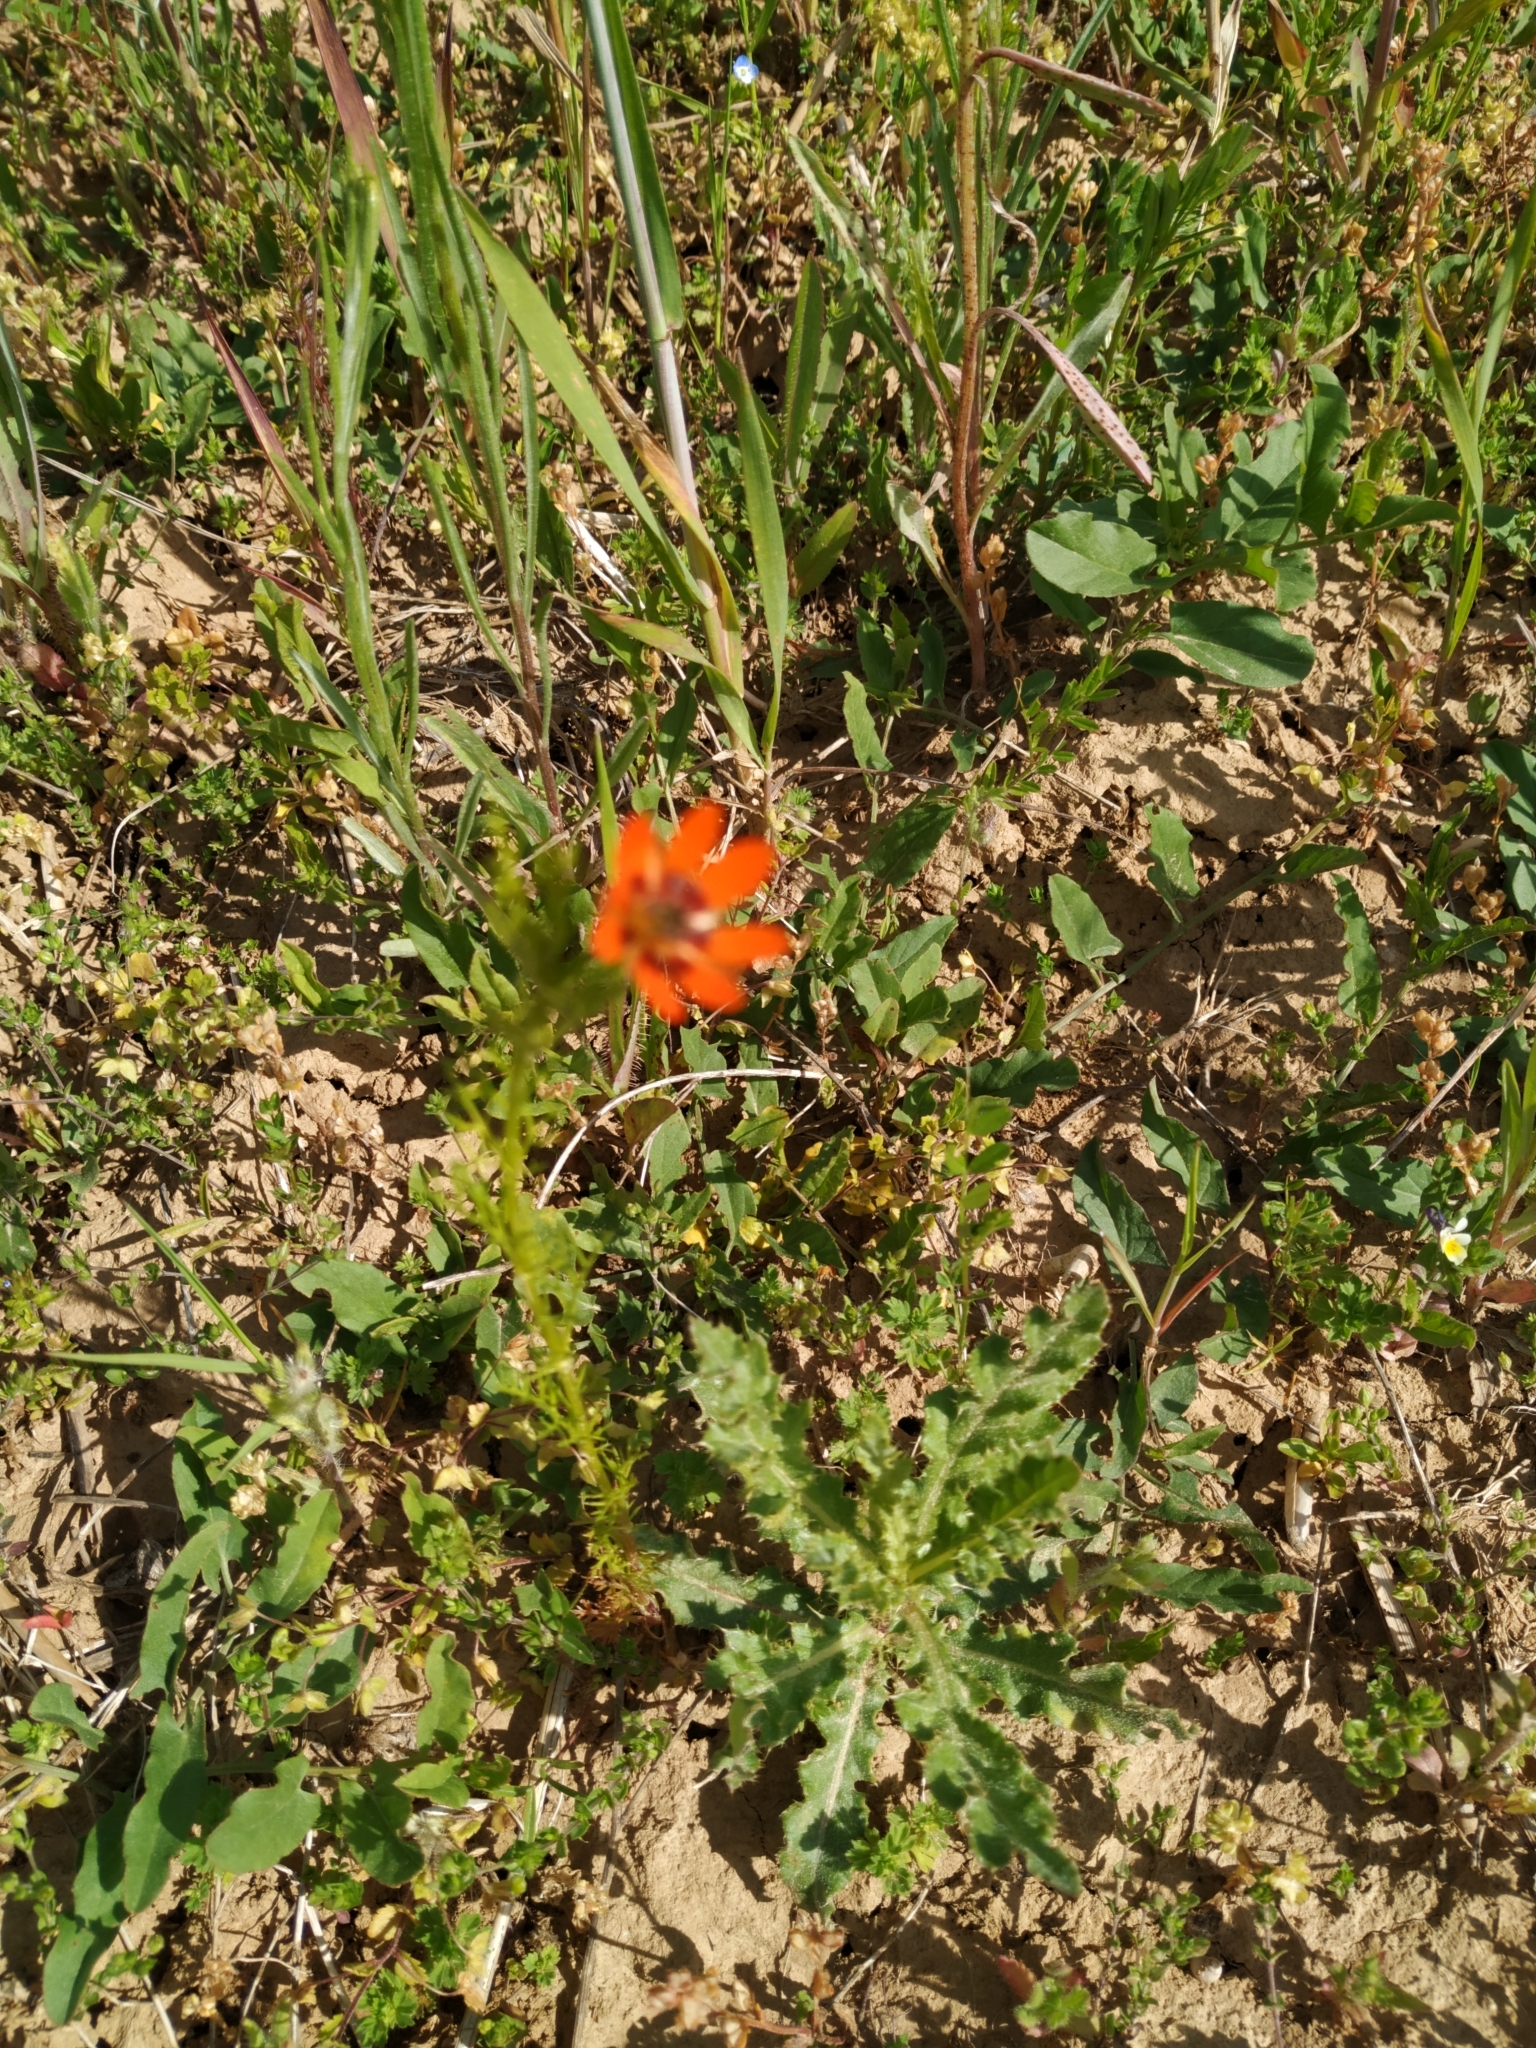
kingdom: Plantae
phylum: Tracheophyta
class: Magnoliopsida
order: Ranunculales
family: Ranunculaceae
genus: Adonis
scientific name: Adonis aestivalis
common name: Summer pheasant's-eye
